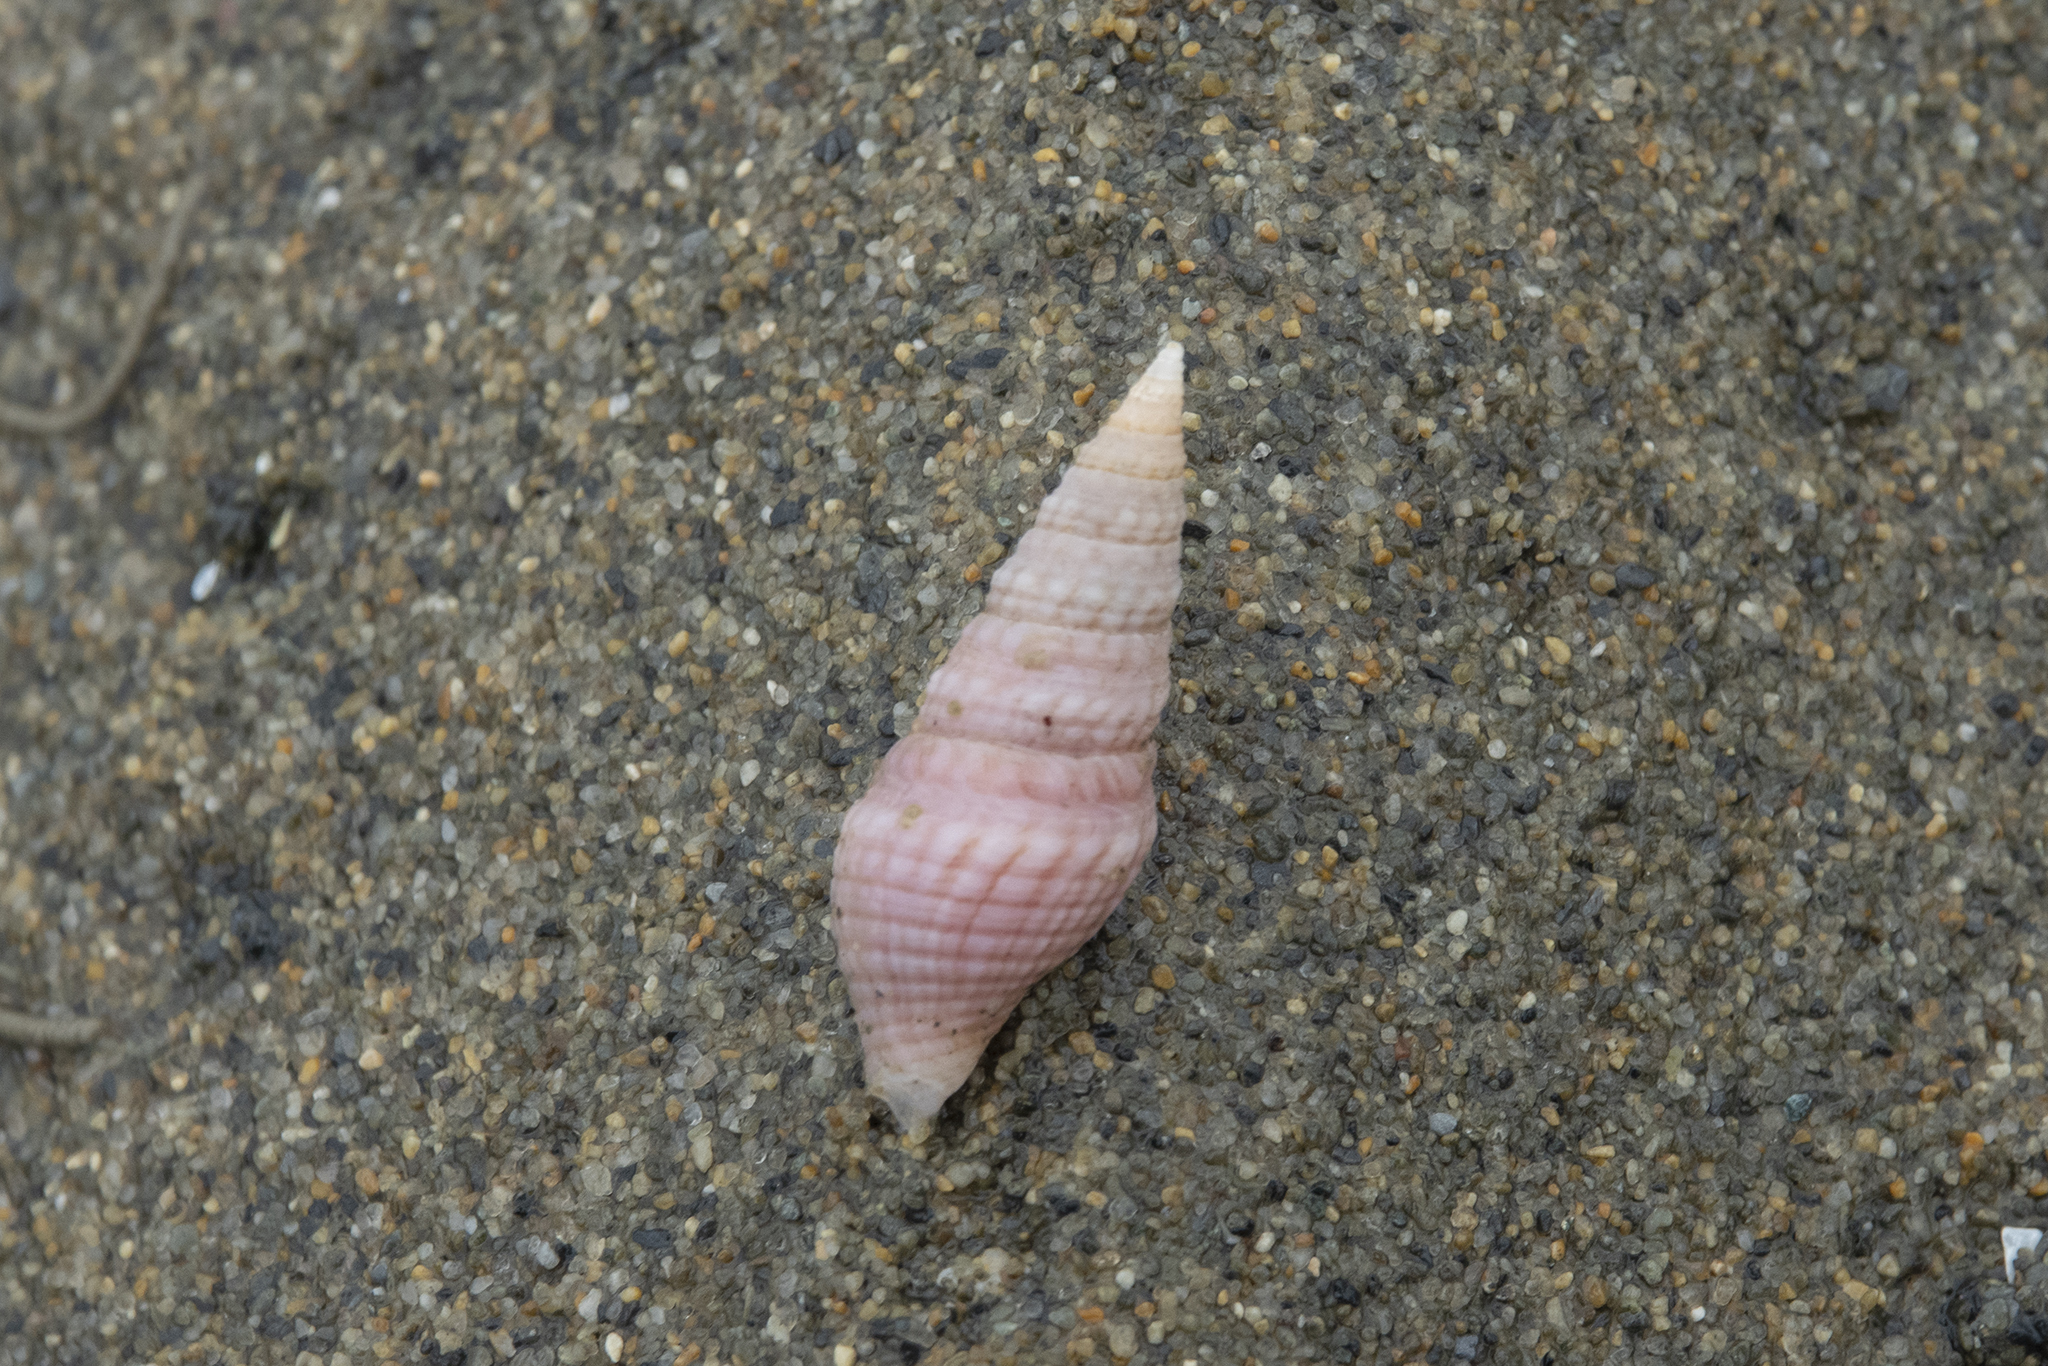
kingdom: Animalia
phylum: Mollusca
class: Gastropoda
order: Neogastropoda
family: Borsoniidae
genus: Phenatoma
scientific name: Phenatoma roseum
